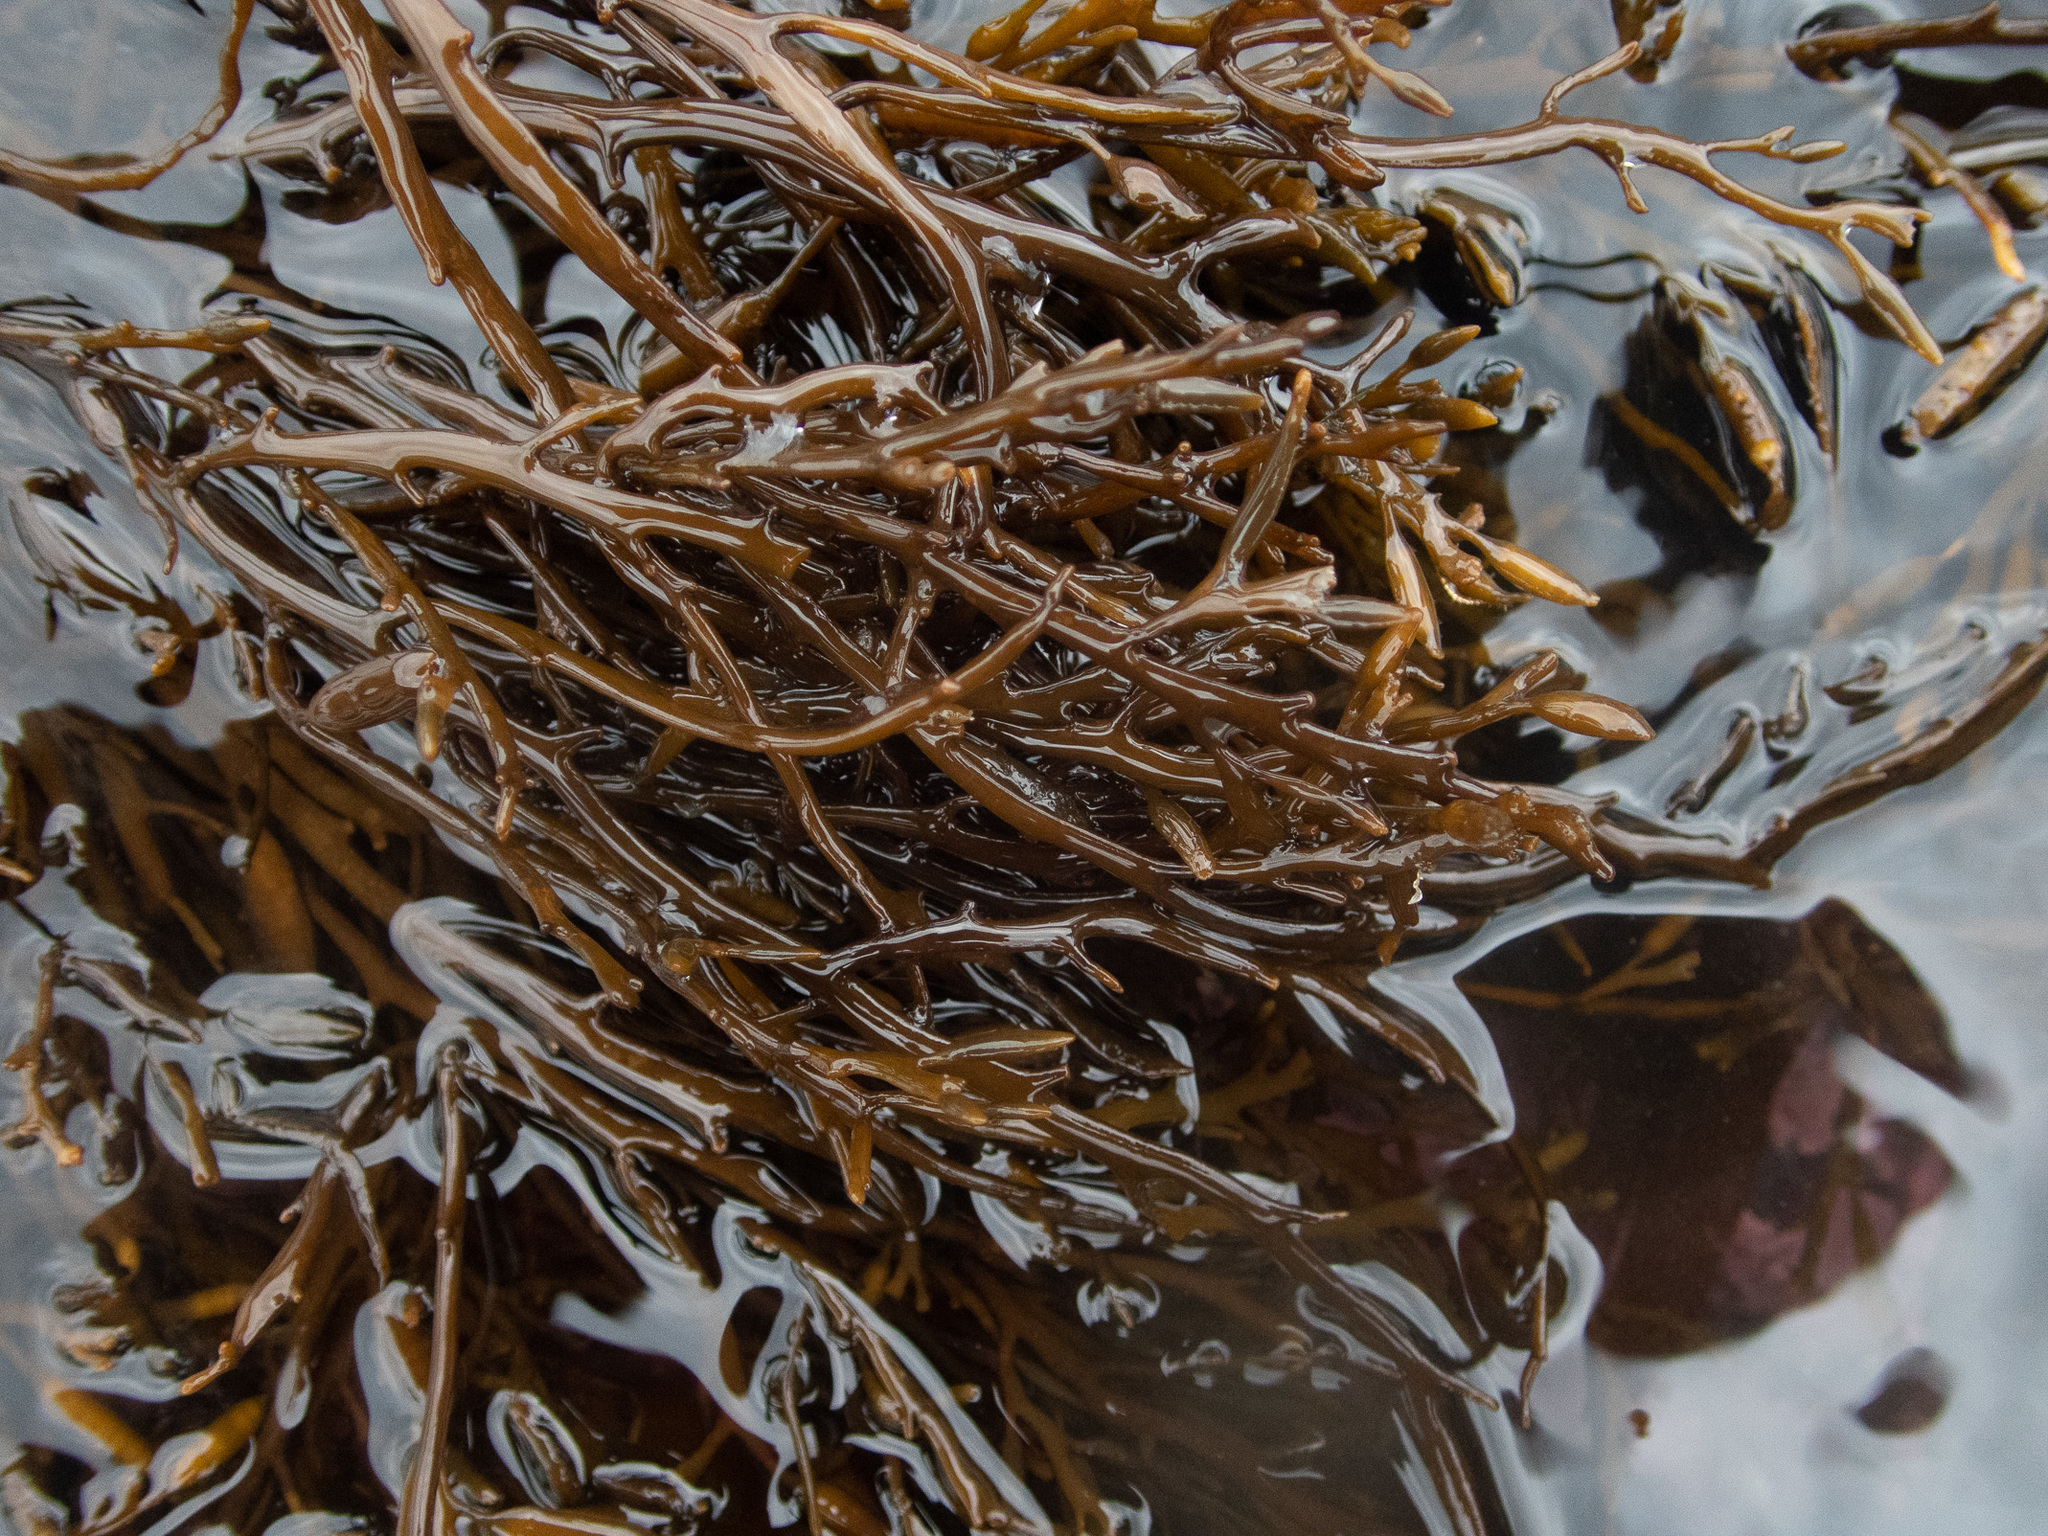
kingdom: Chromista
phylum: Ochrophyta
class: Phaeophyceae
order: Fucales
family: Sargassaceae
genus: Halidrys
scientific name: Halidrys siliquosa
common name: Sea oak
